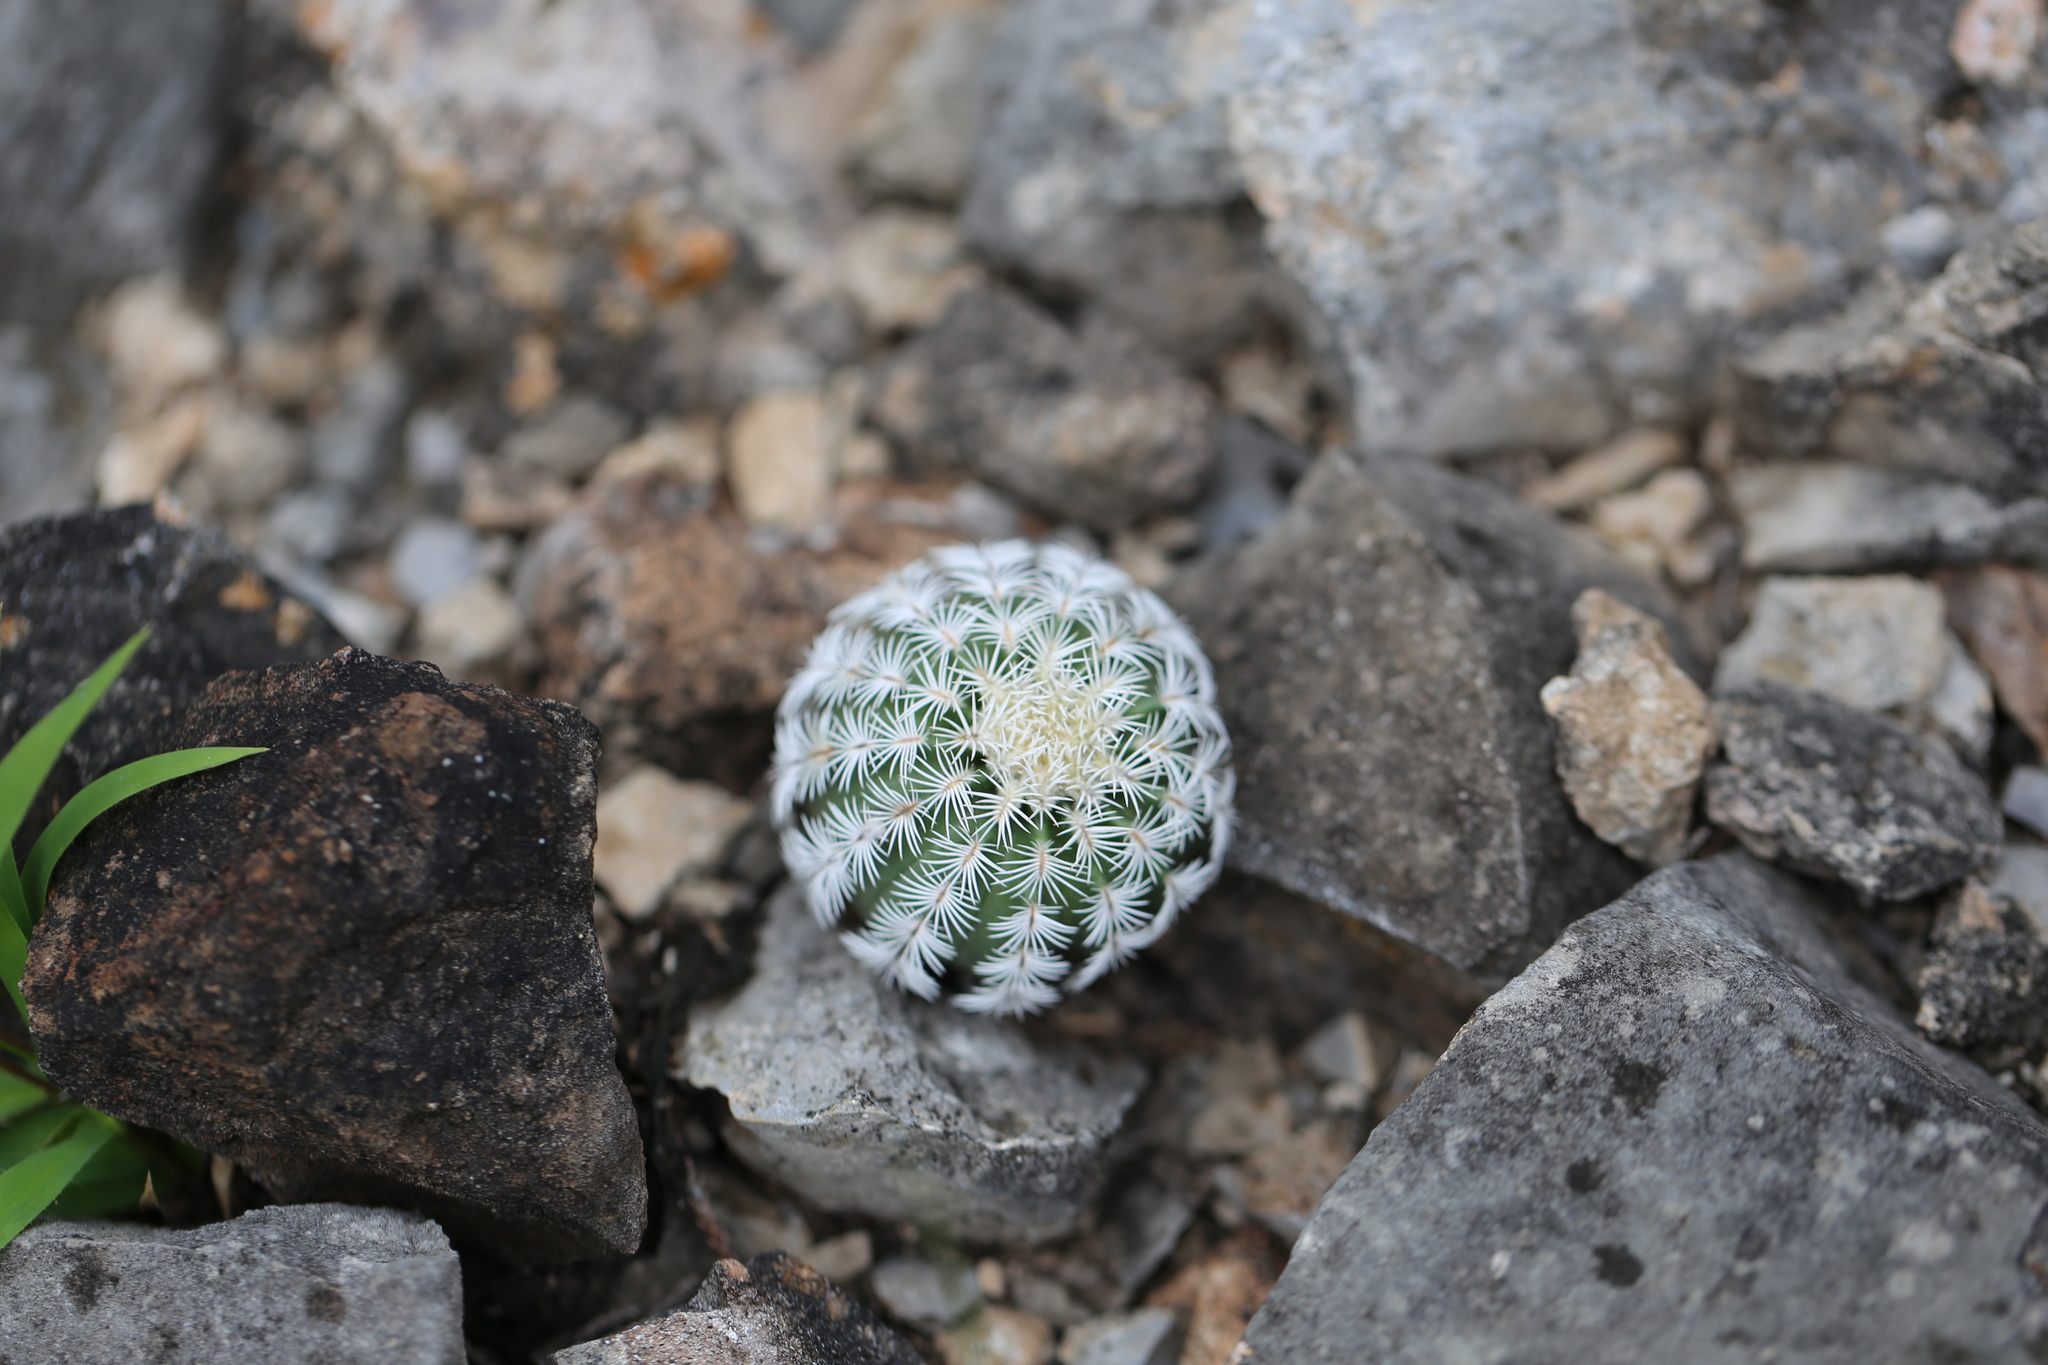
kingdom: Plantae
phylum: Tracheophyta
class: Magnoliopsida
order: Caryophyllales
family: Cactaceae
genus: Echinocereus
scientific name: Echinocereus reichenbachii
